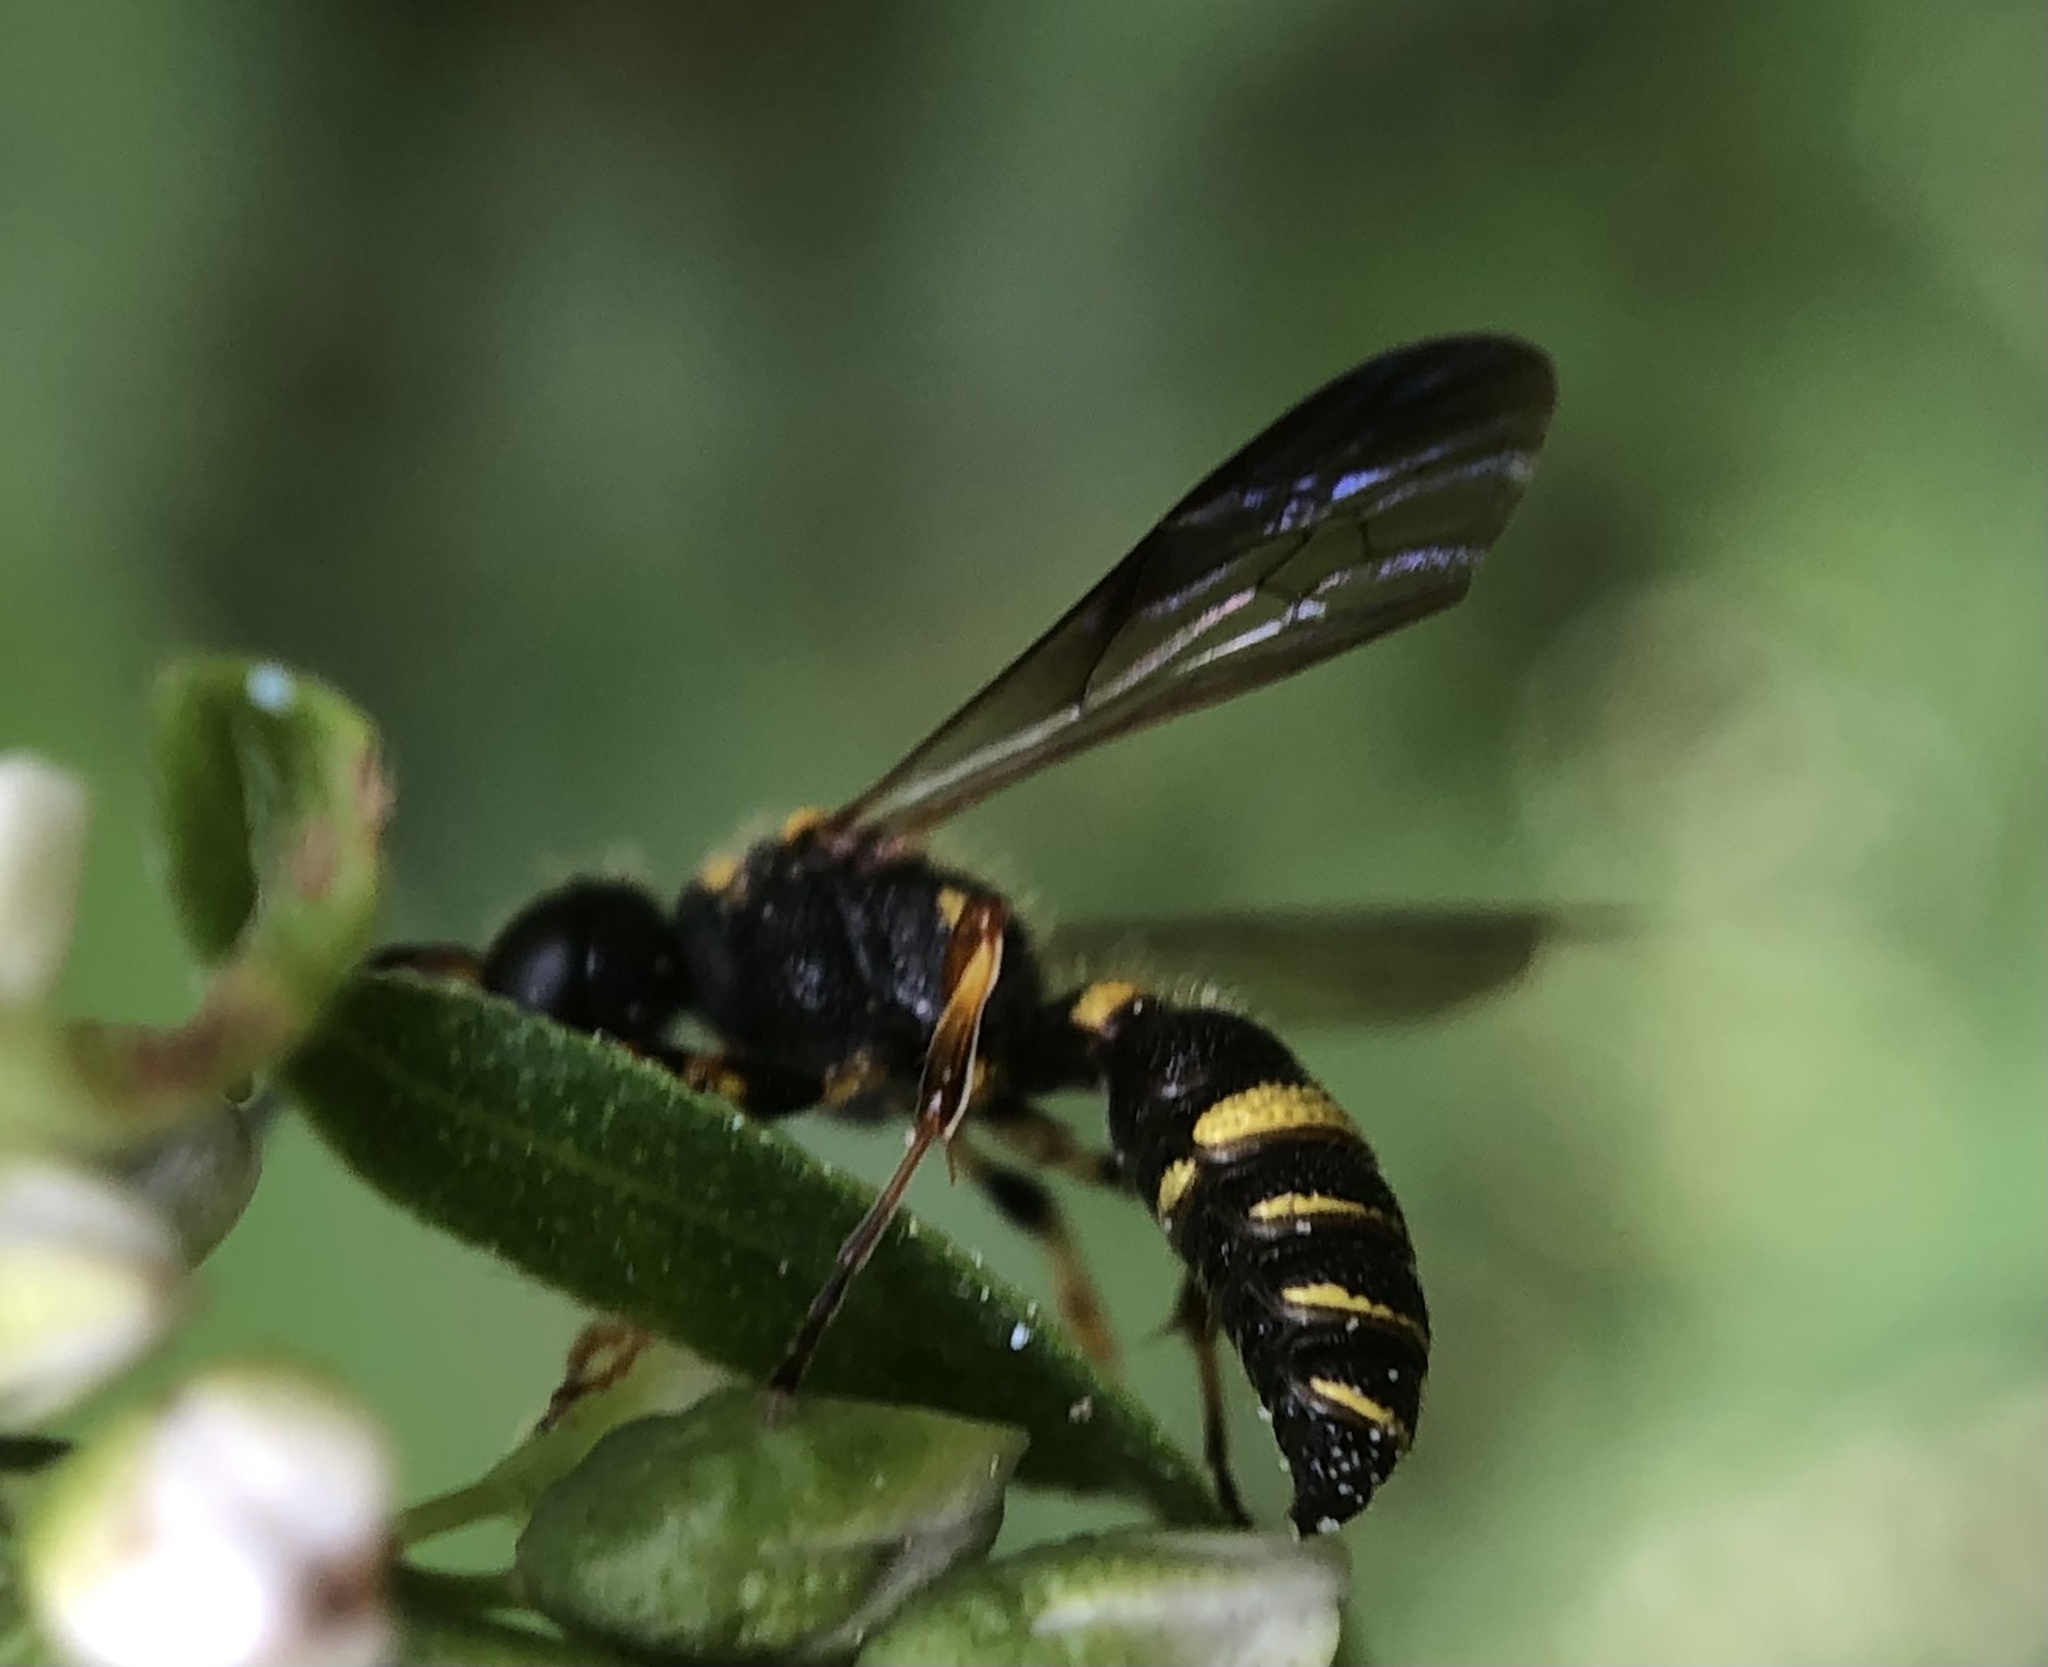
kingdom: Animalia
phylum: Arthropoda
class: Insecta
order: Hymenoptera
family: Crabronidae
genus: Cerceris
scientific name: Cerceris insolita
